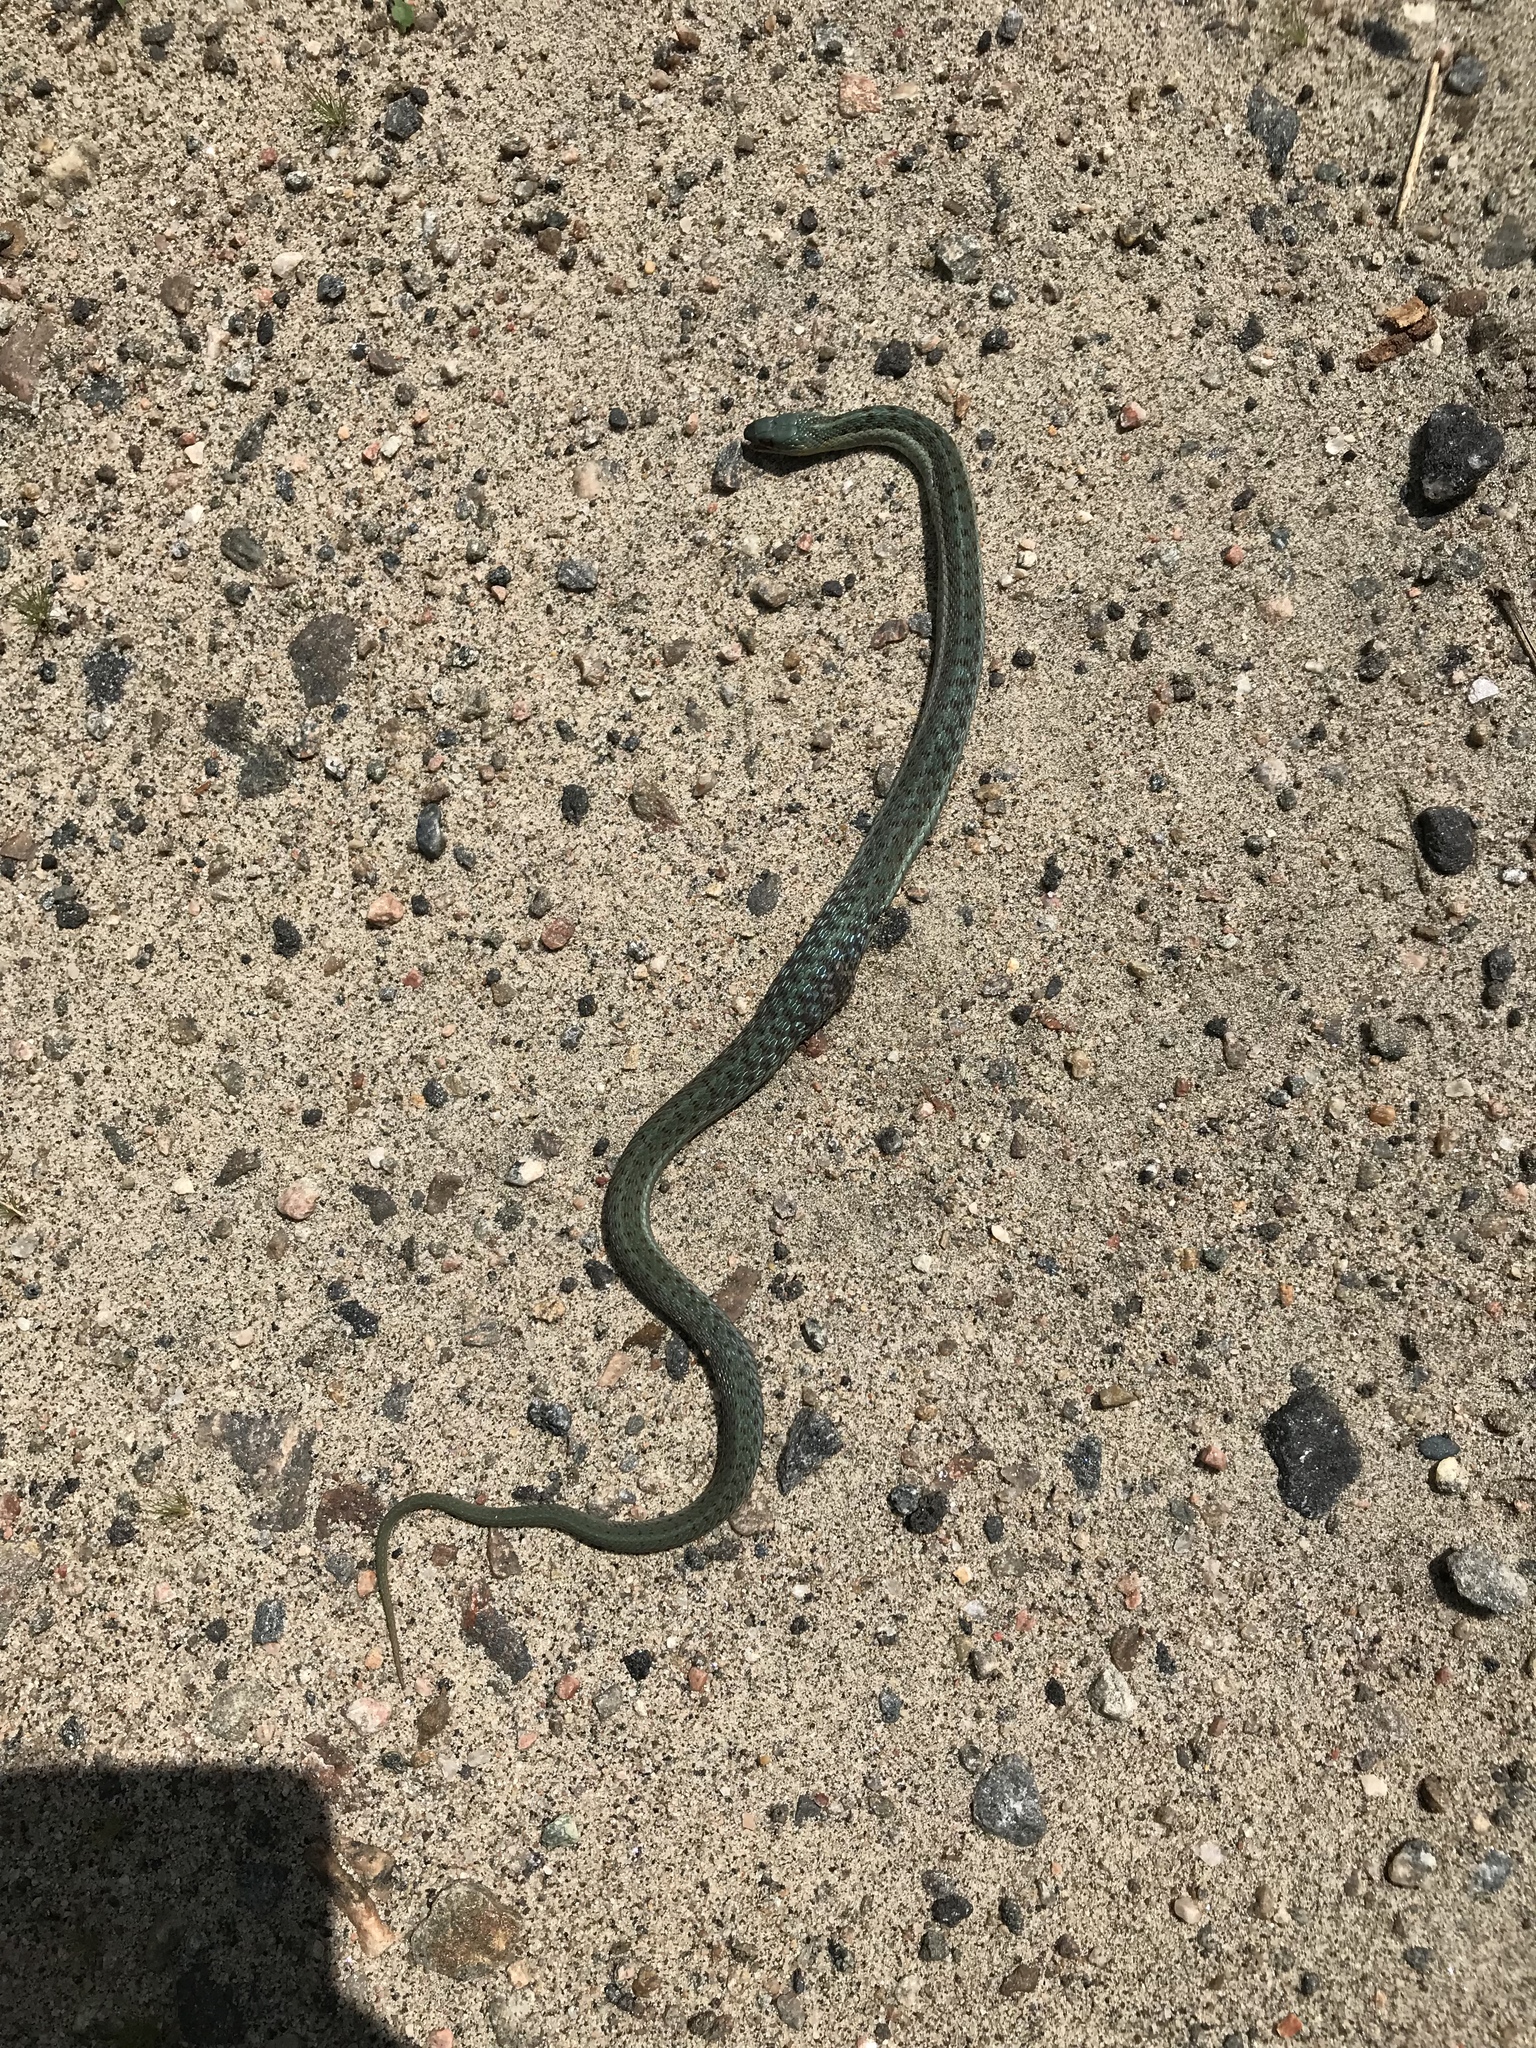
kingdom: Animalia
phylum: Chordata
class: Squamata
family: Colubridae
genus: Thamnophis
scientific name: Thamnophis sirtalis
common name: Common garter snake
